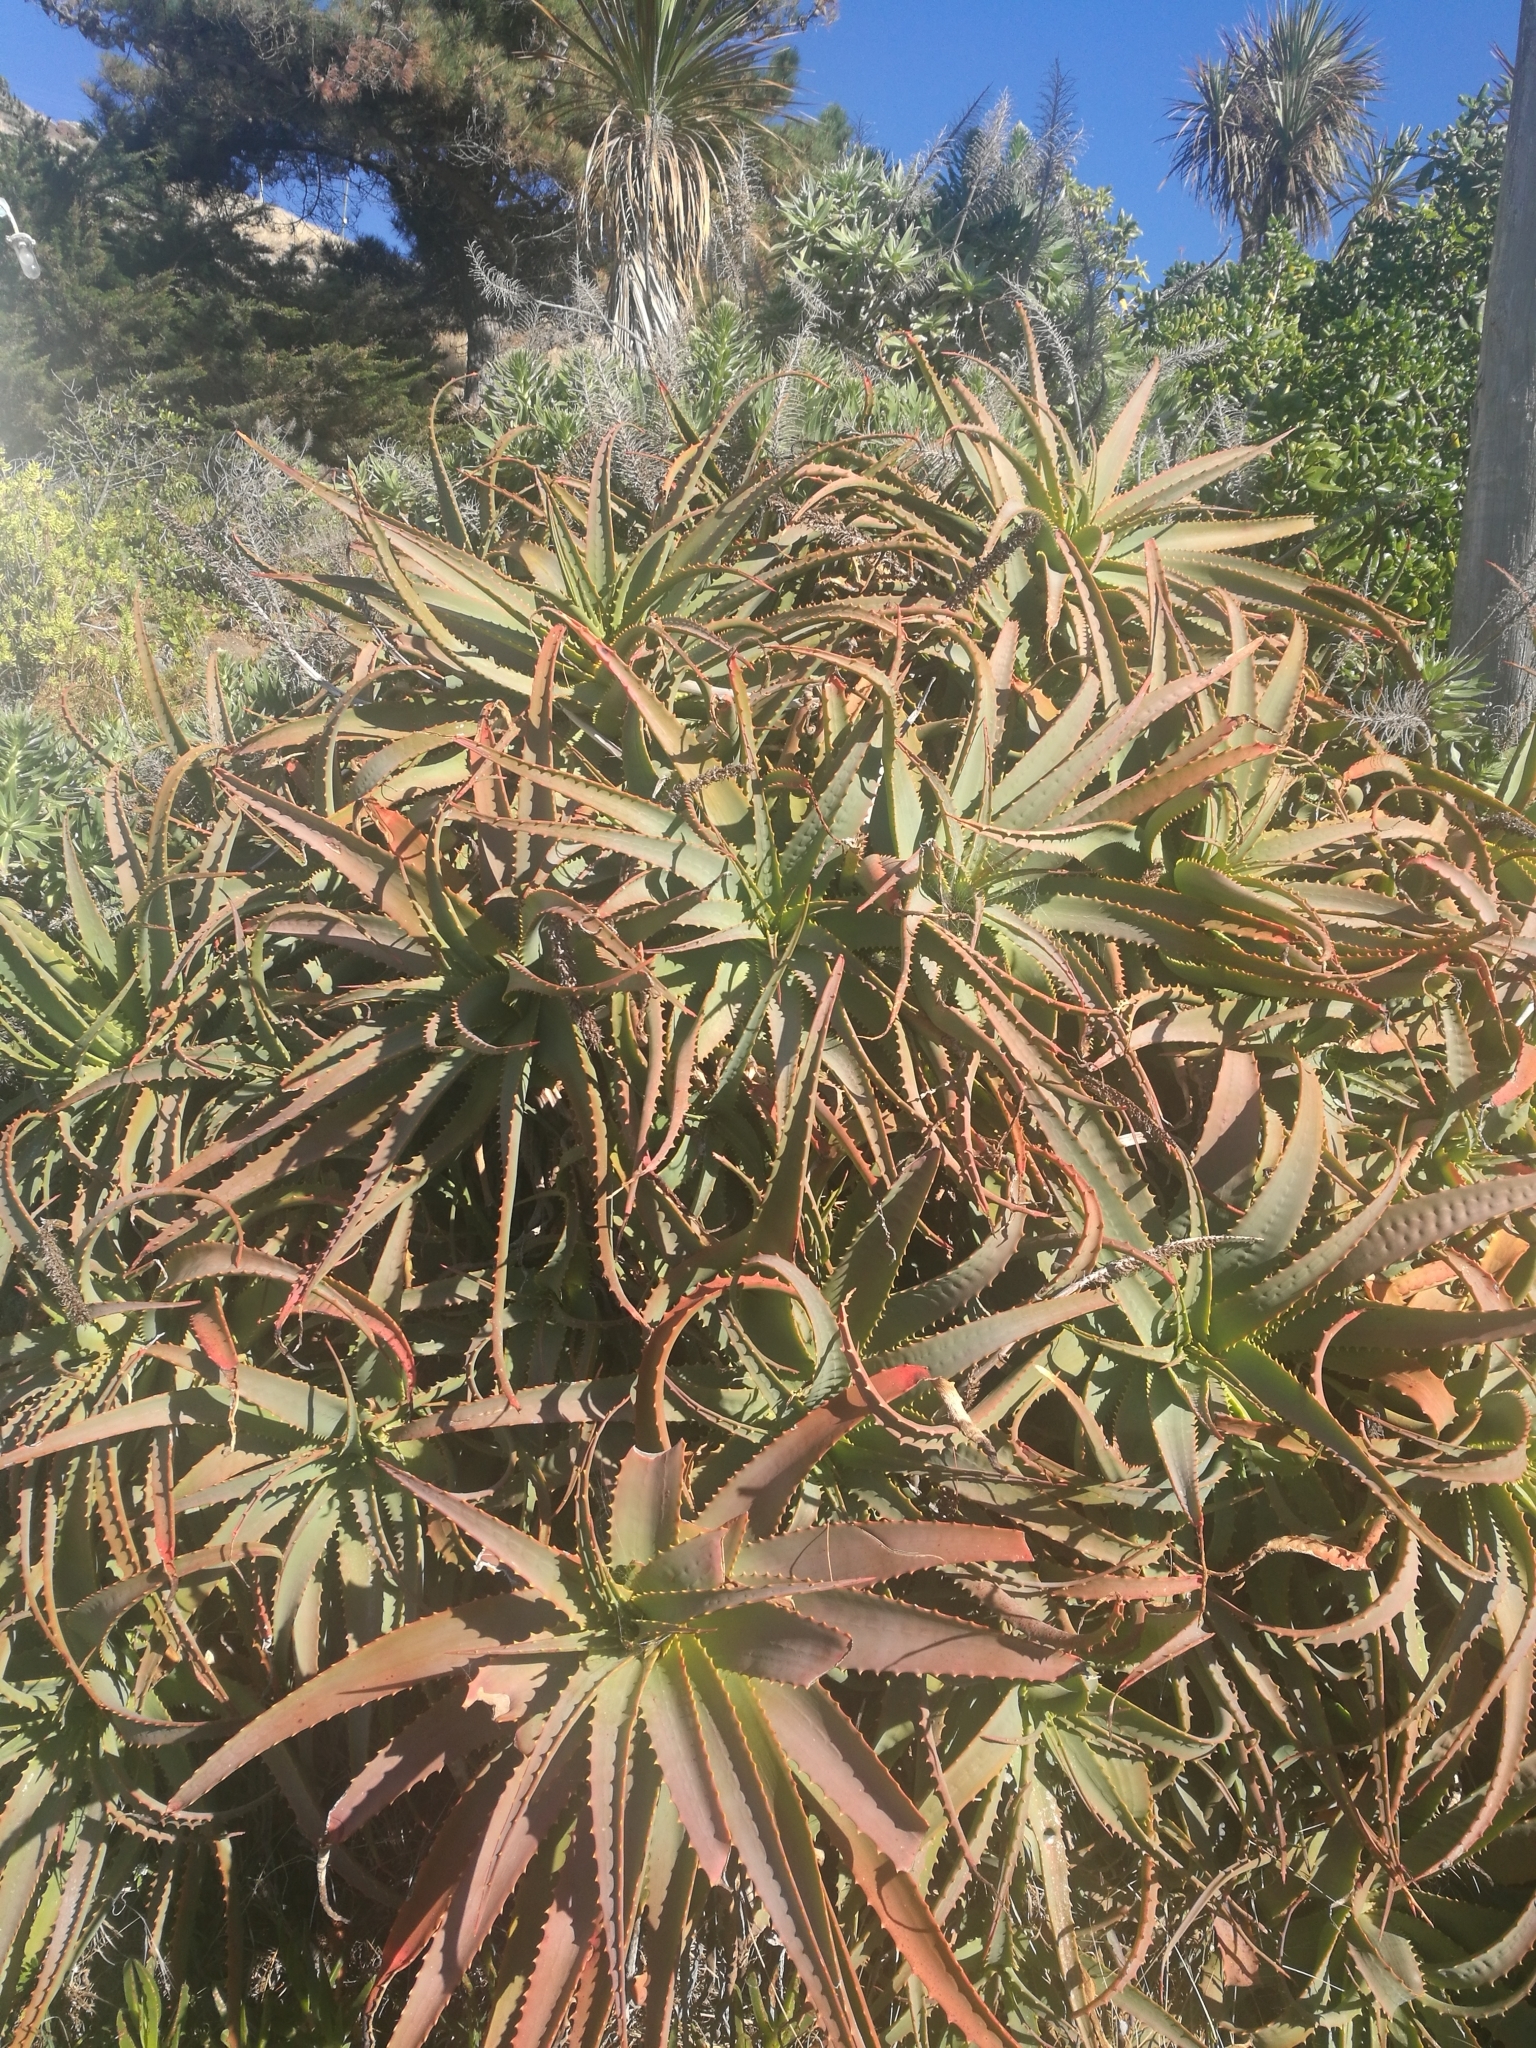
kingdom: Plantae
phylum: Tracheophyta
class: Liliopsida
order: Asparagales
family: Asphodelaceae
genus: Aloe
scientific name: Aloe arborescens
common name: Candelabra aloe
